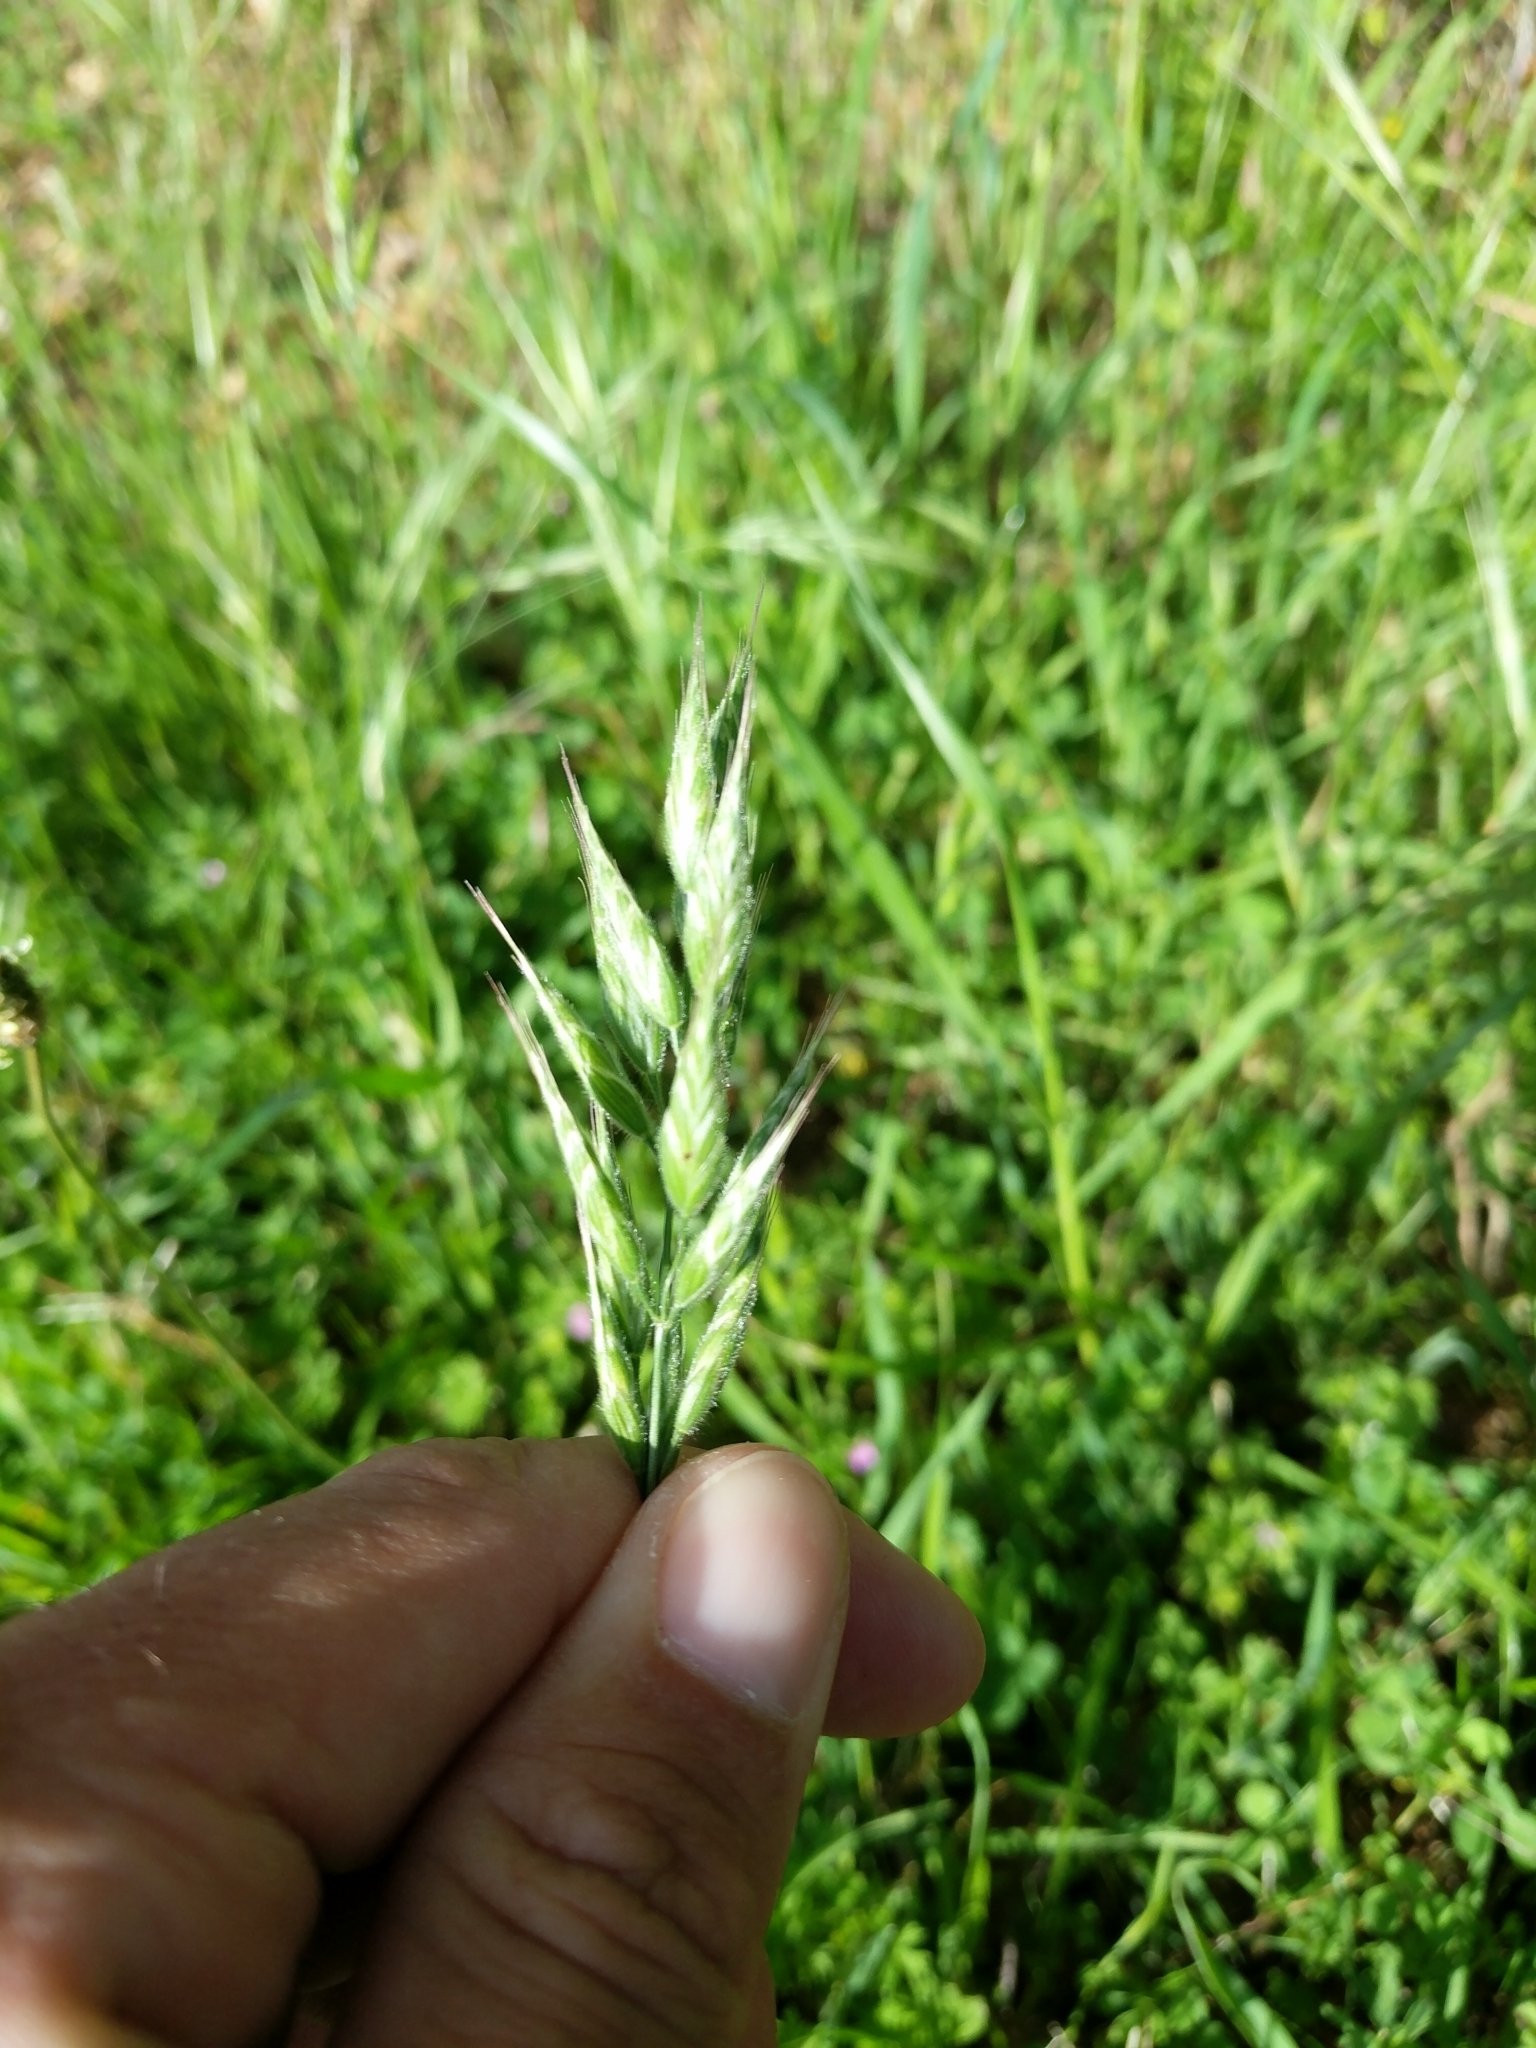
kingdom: Plantae
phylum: Tracheophyta
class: Liliopsida
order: Poales
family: Poaceae
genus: Bromus
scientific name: Bromus hordeaceus
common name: Soft brome
